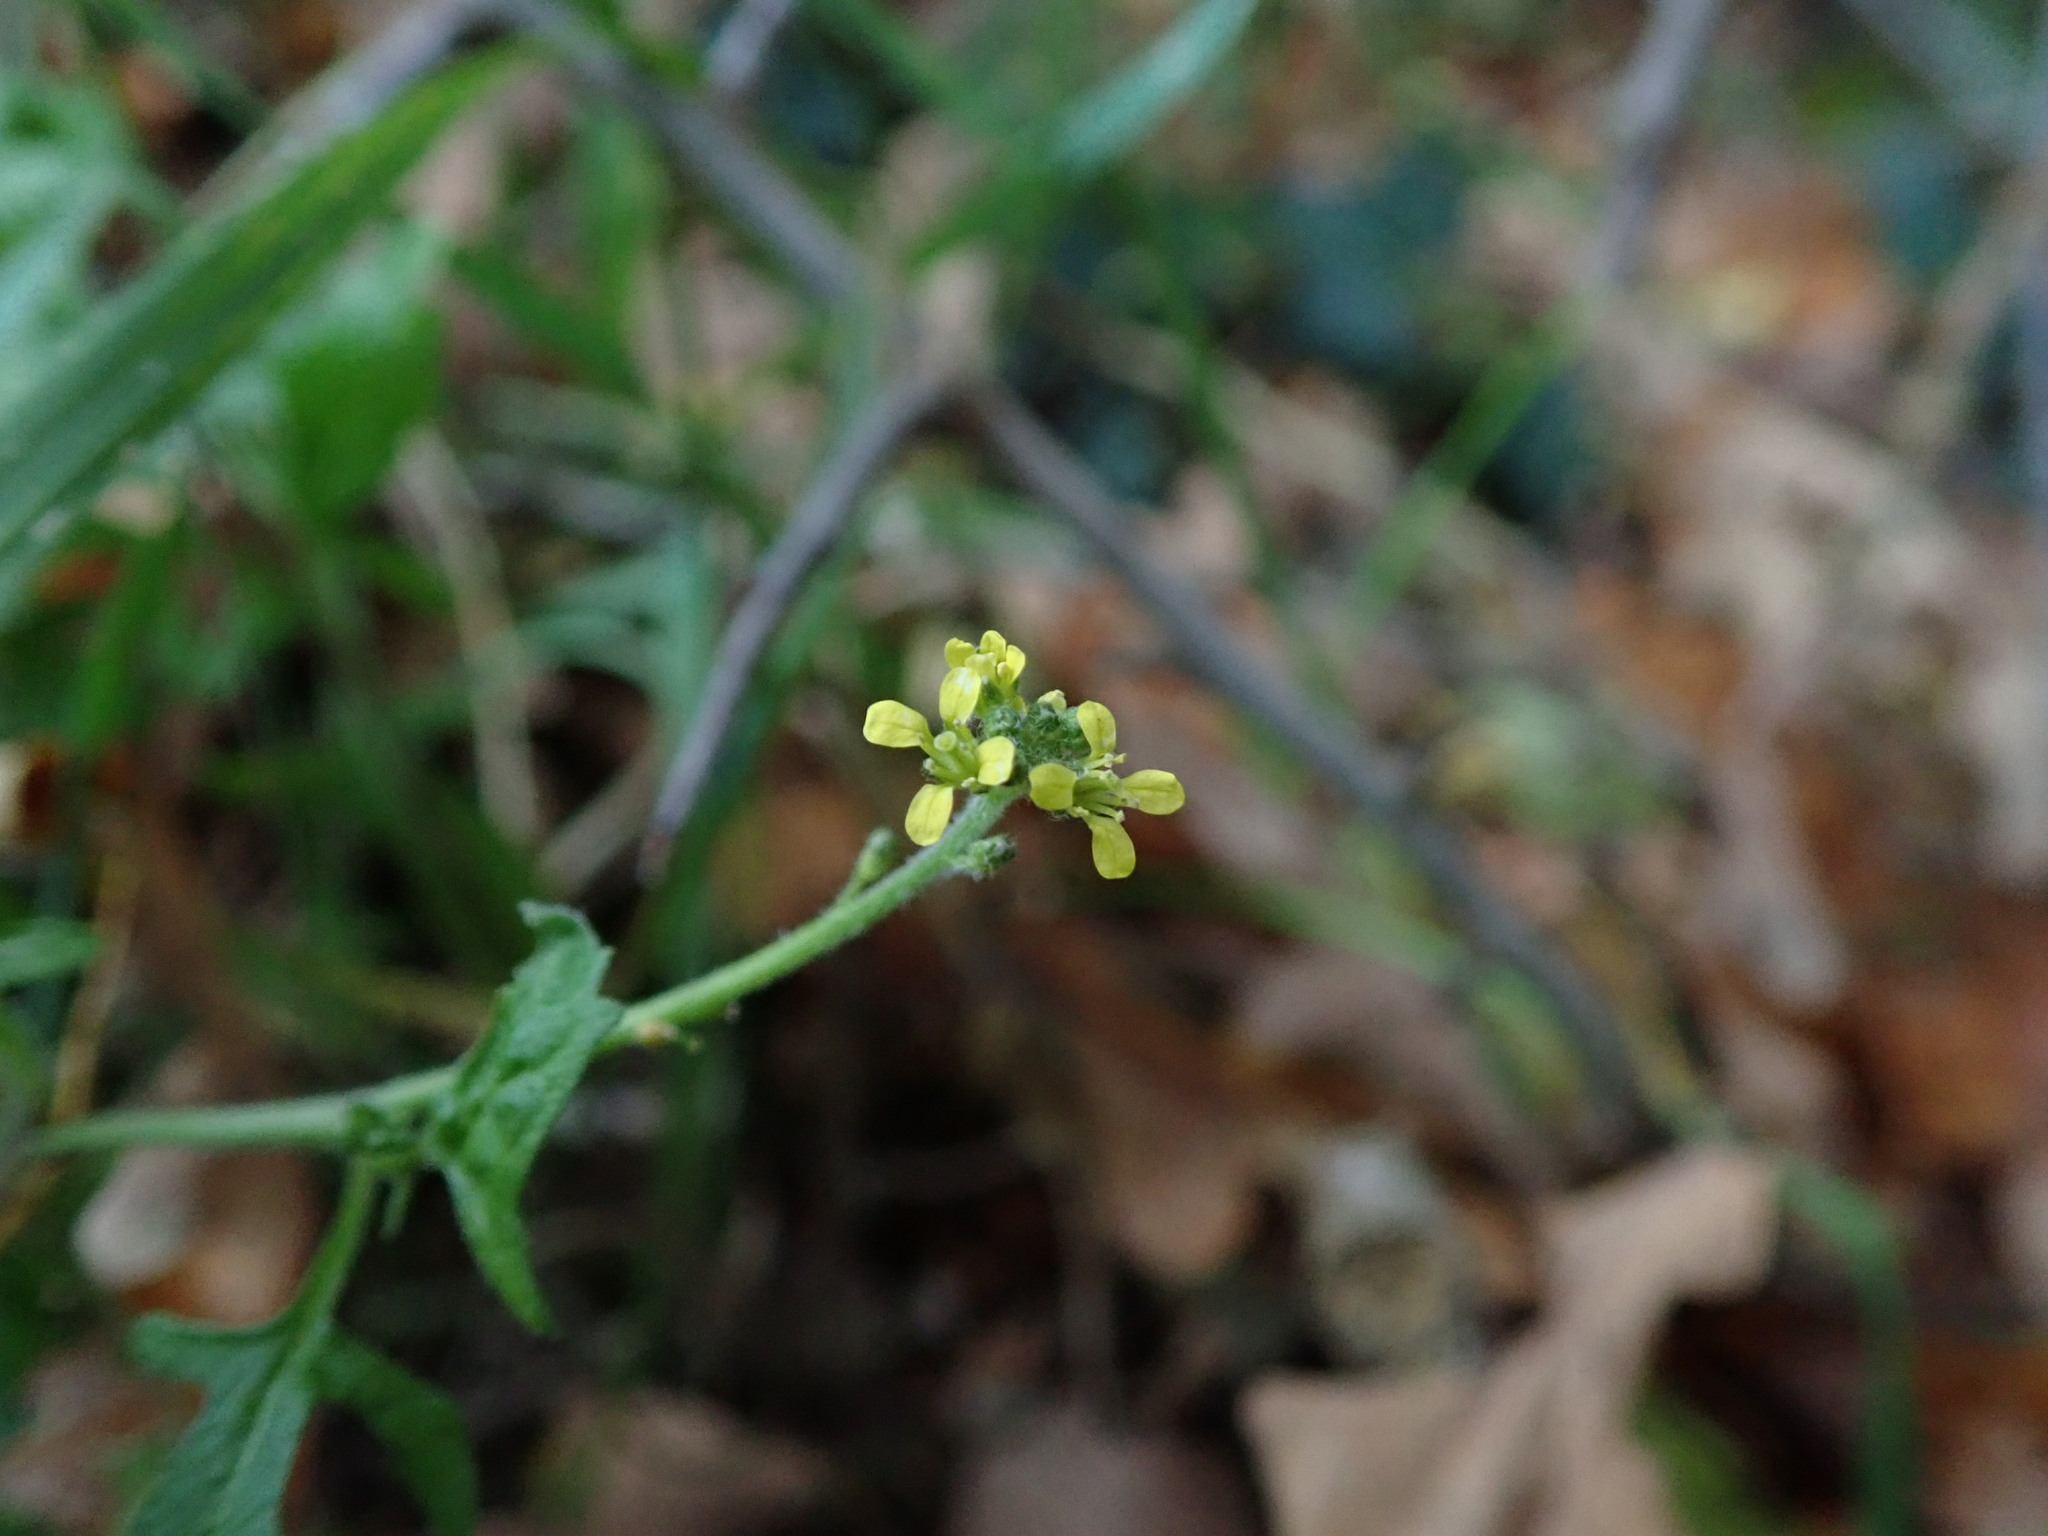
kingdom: Plantae
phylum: Tracheophyta
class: Magnoliopsida
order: Brassicales
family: Brassicaceae
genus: Sisymbrium
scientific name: Sisymbrium officinale
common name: Hedge mustard
